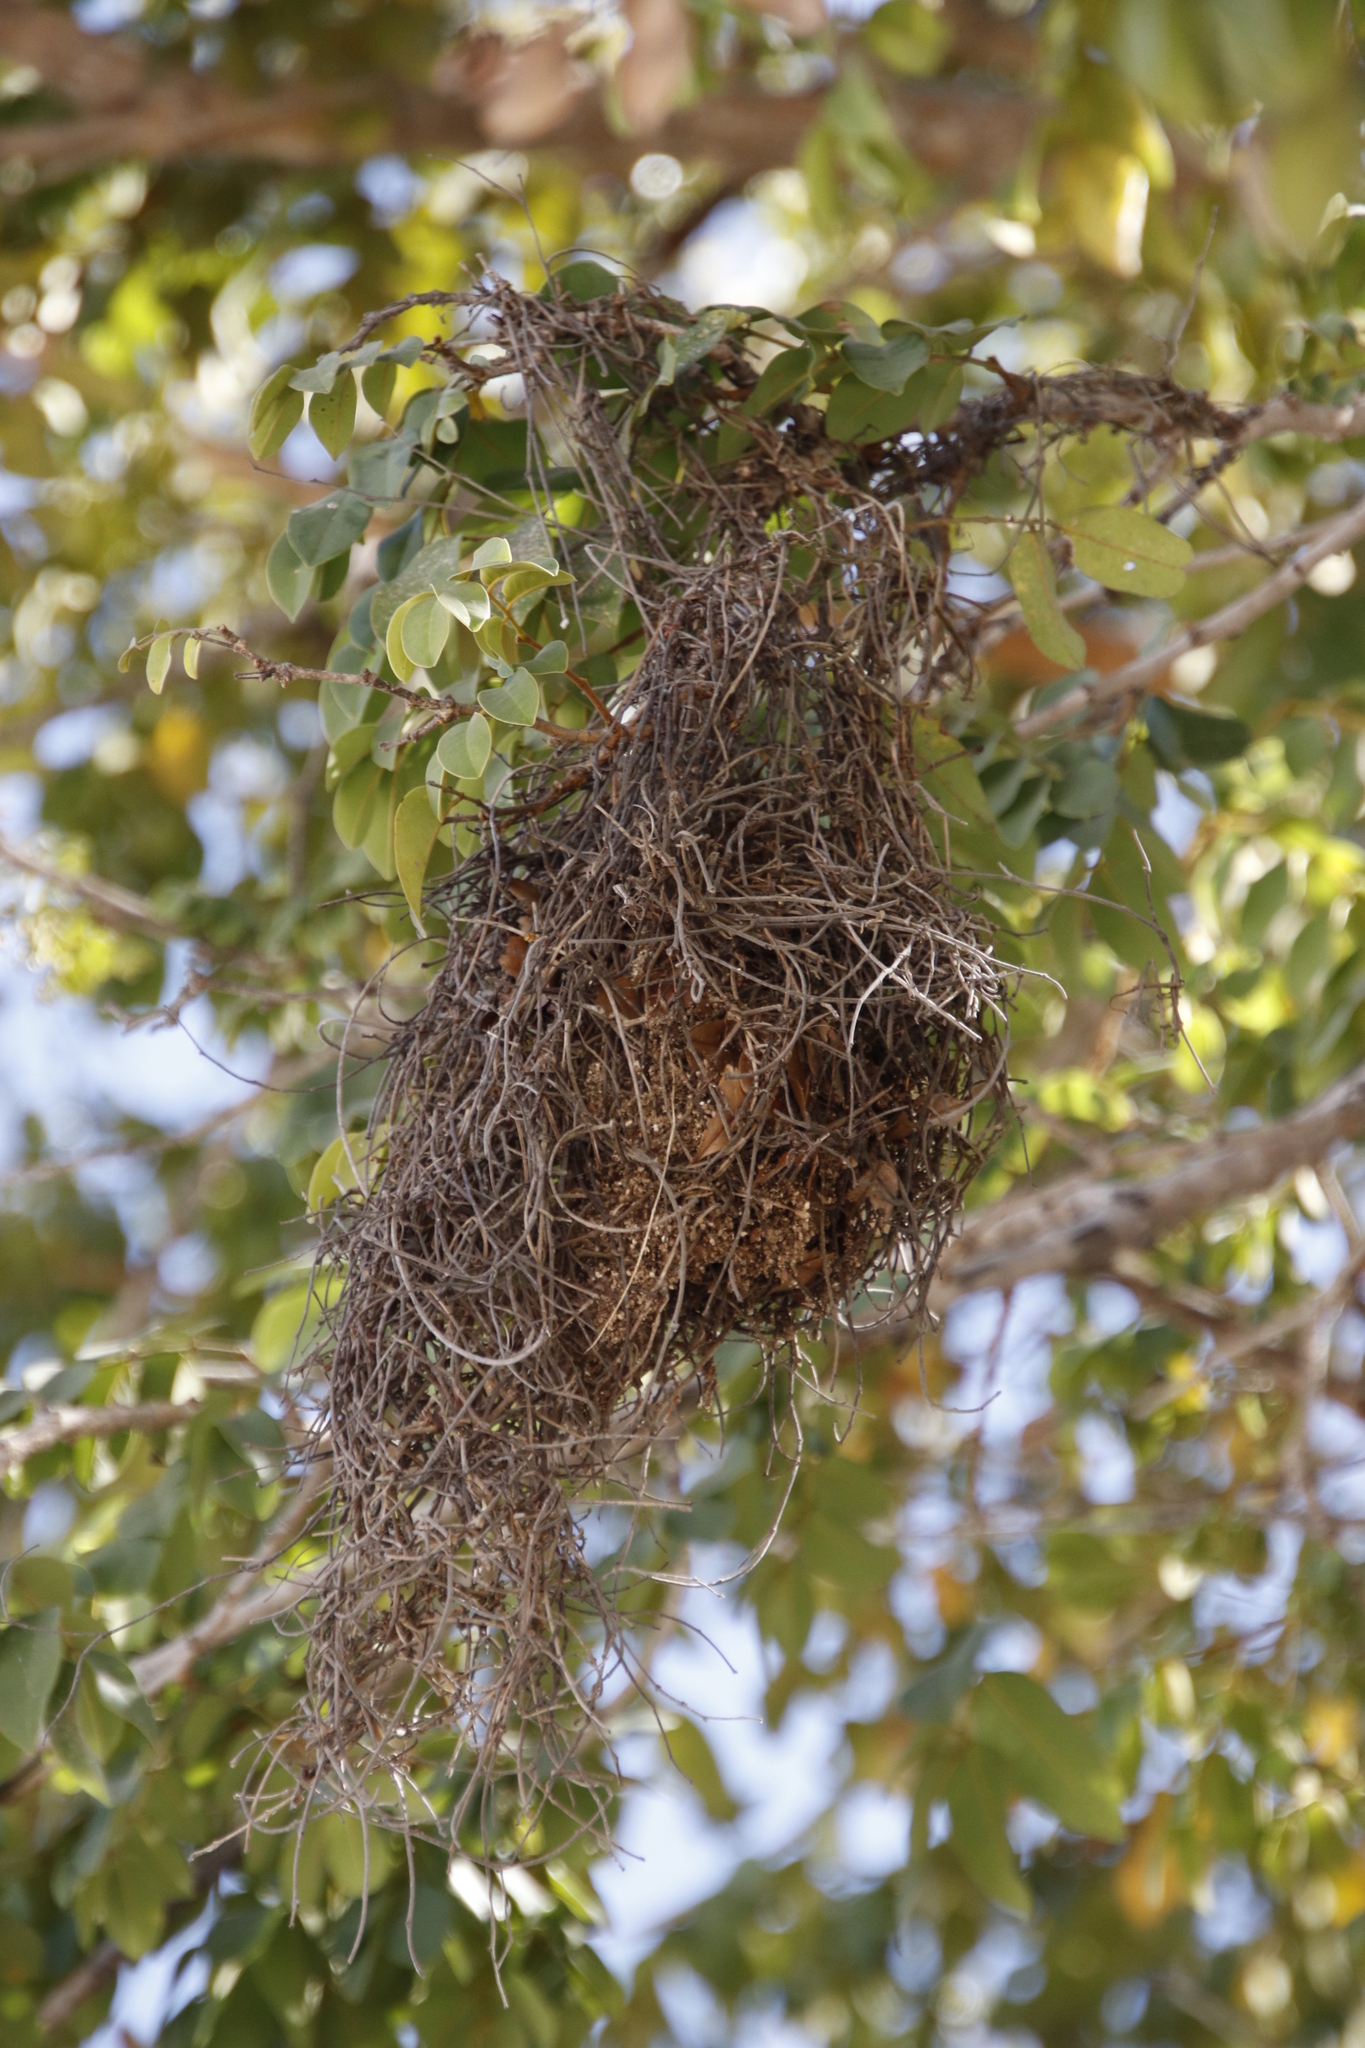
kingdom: Animalia
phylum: Chordata
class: Aves
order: Passeriformes
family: Ploceidae
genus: Anaplectes
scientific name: Anaplectes rubriceps
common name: Red-headed weaver
